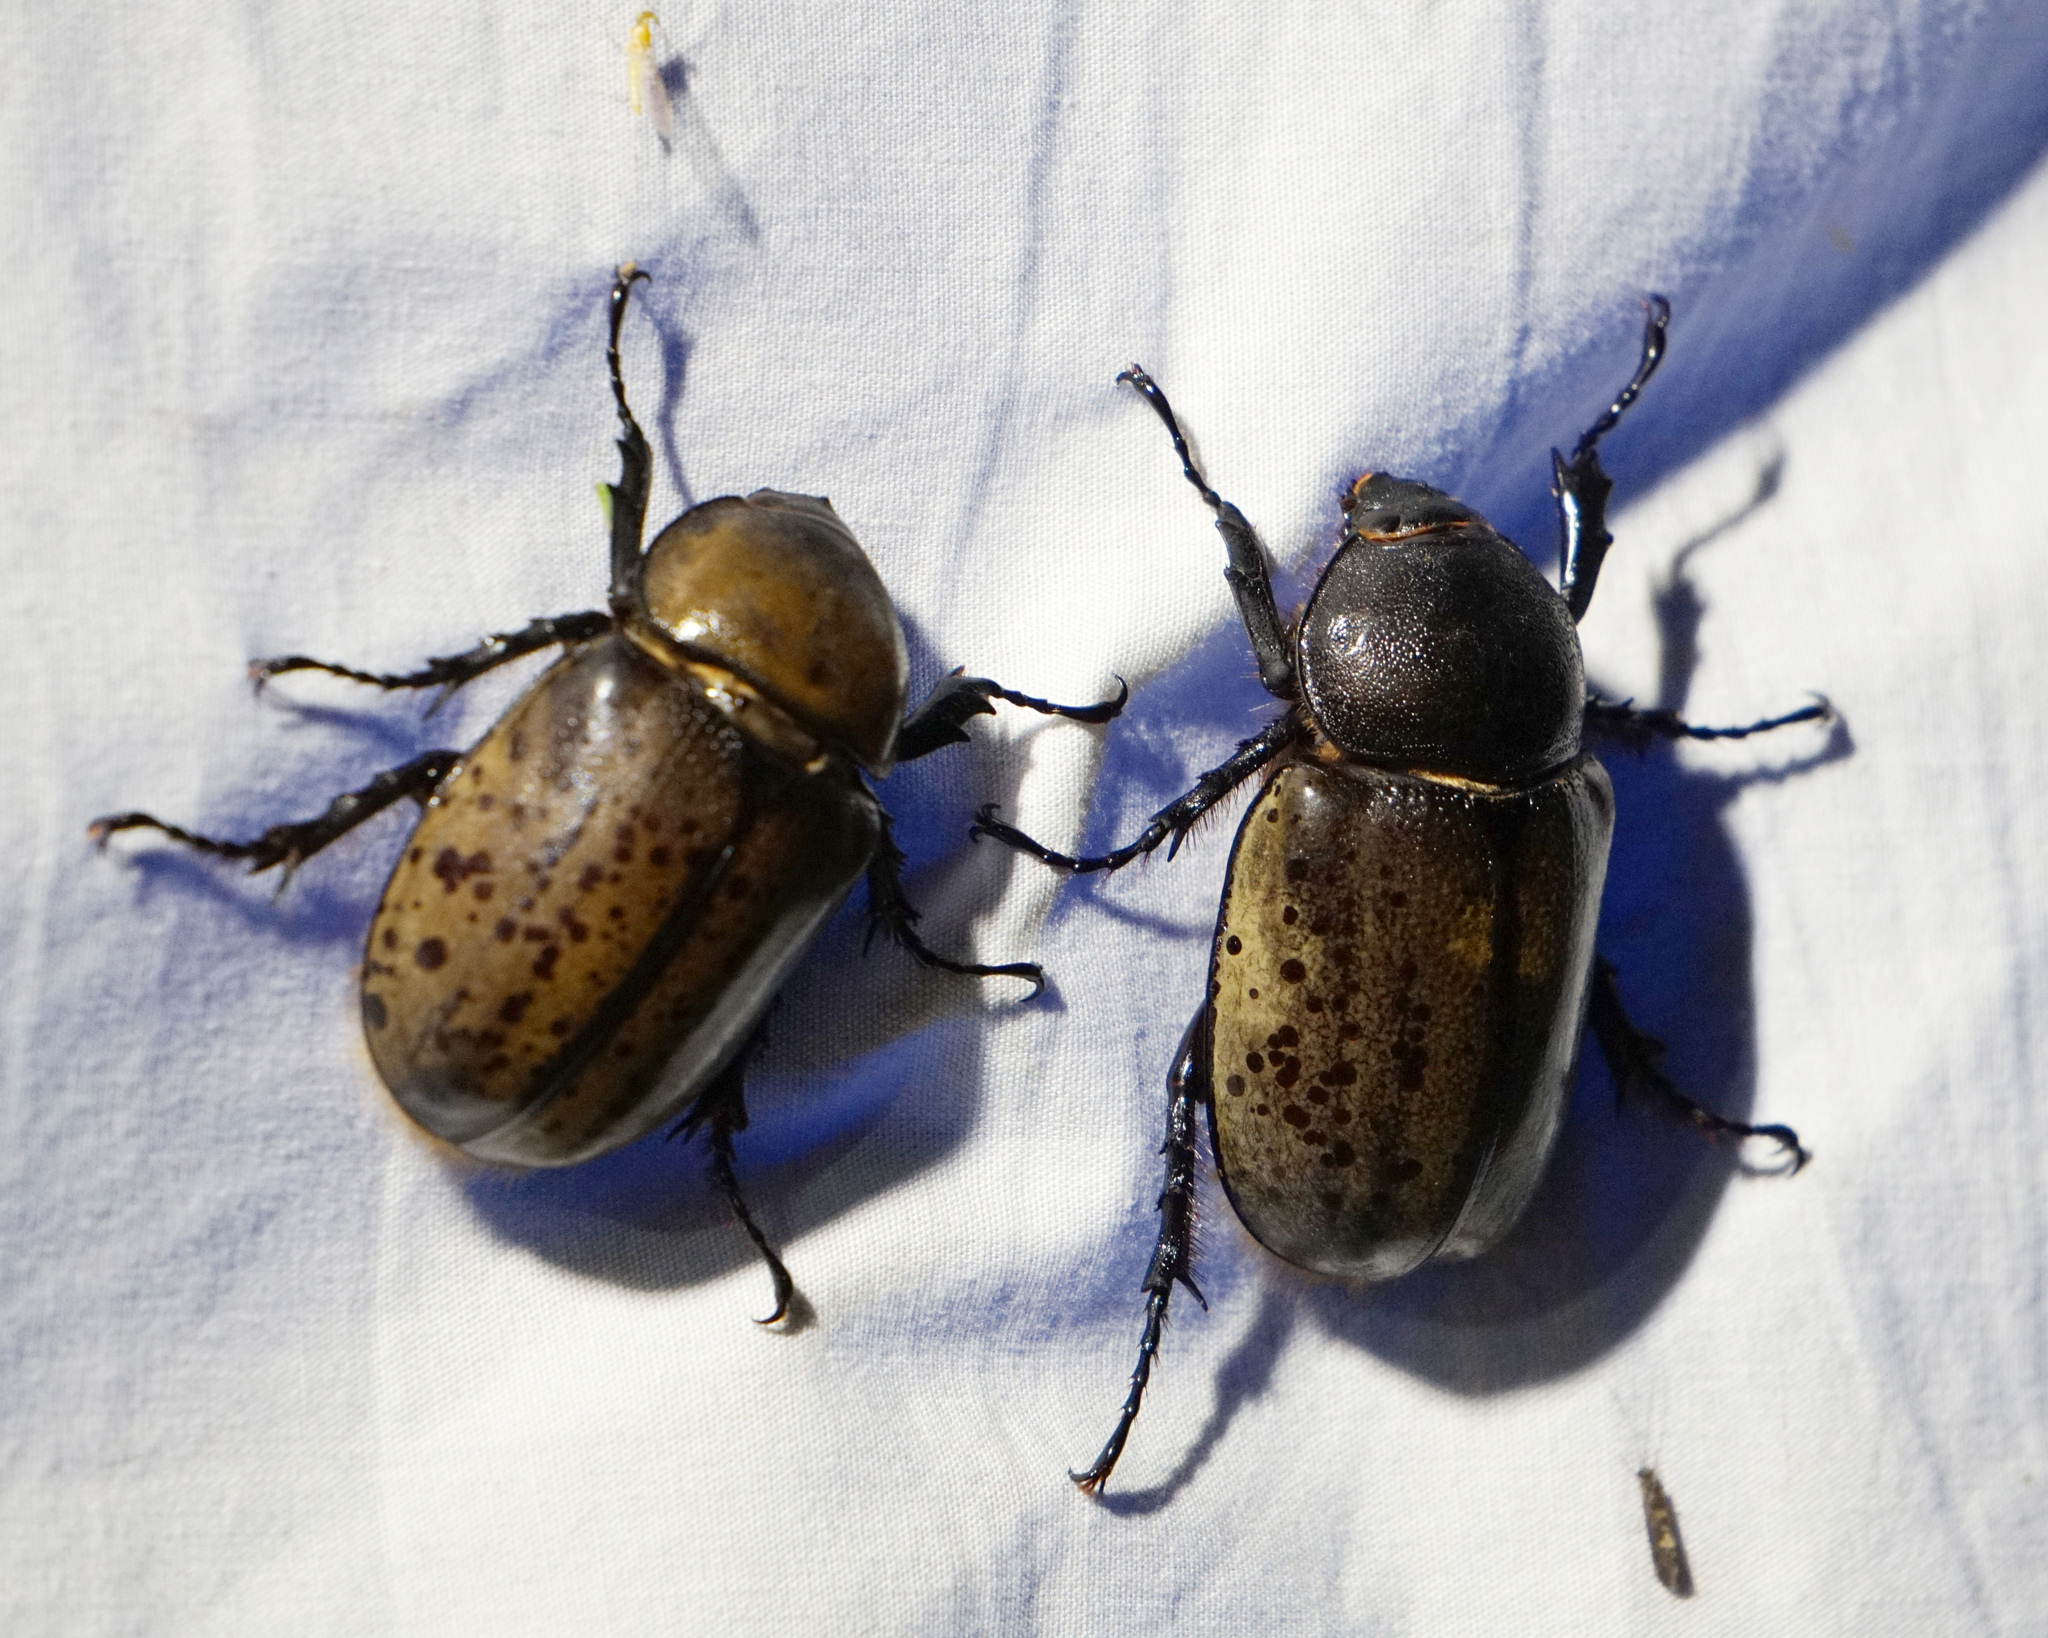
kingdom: Animalia
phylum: Arthropoda
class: Insecta
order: Coleoptera
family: Scarabaeidae
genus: Dynastes
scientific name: Dynastes tityus
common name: Eastern hercules beetle
